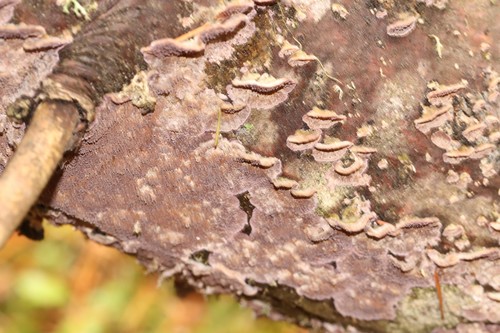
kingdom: Fungi
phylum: Basidiomycota
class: Agaricomycetes
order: Hymenochaetales
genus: Trichaptum
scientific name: Trichaptum fuscoviolaceum
